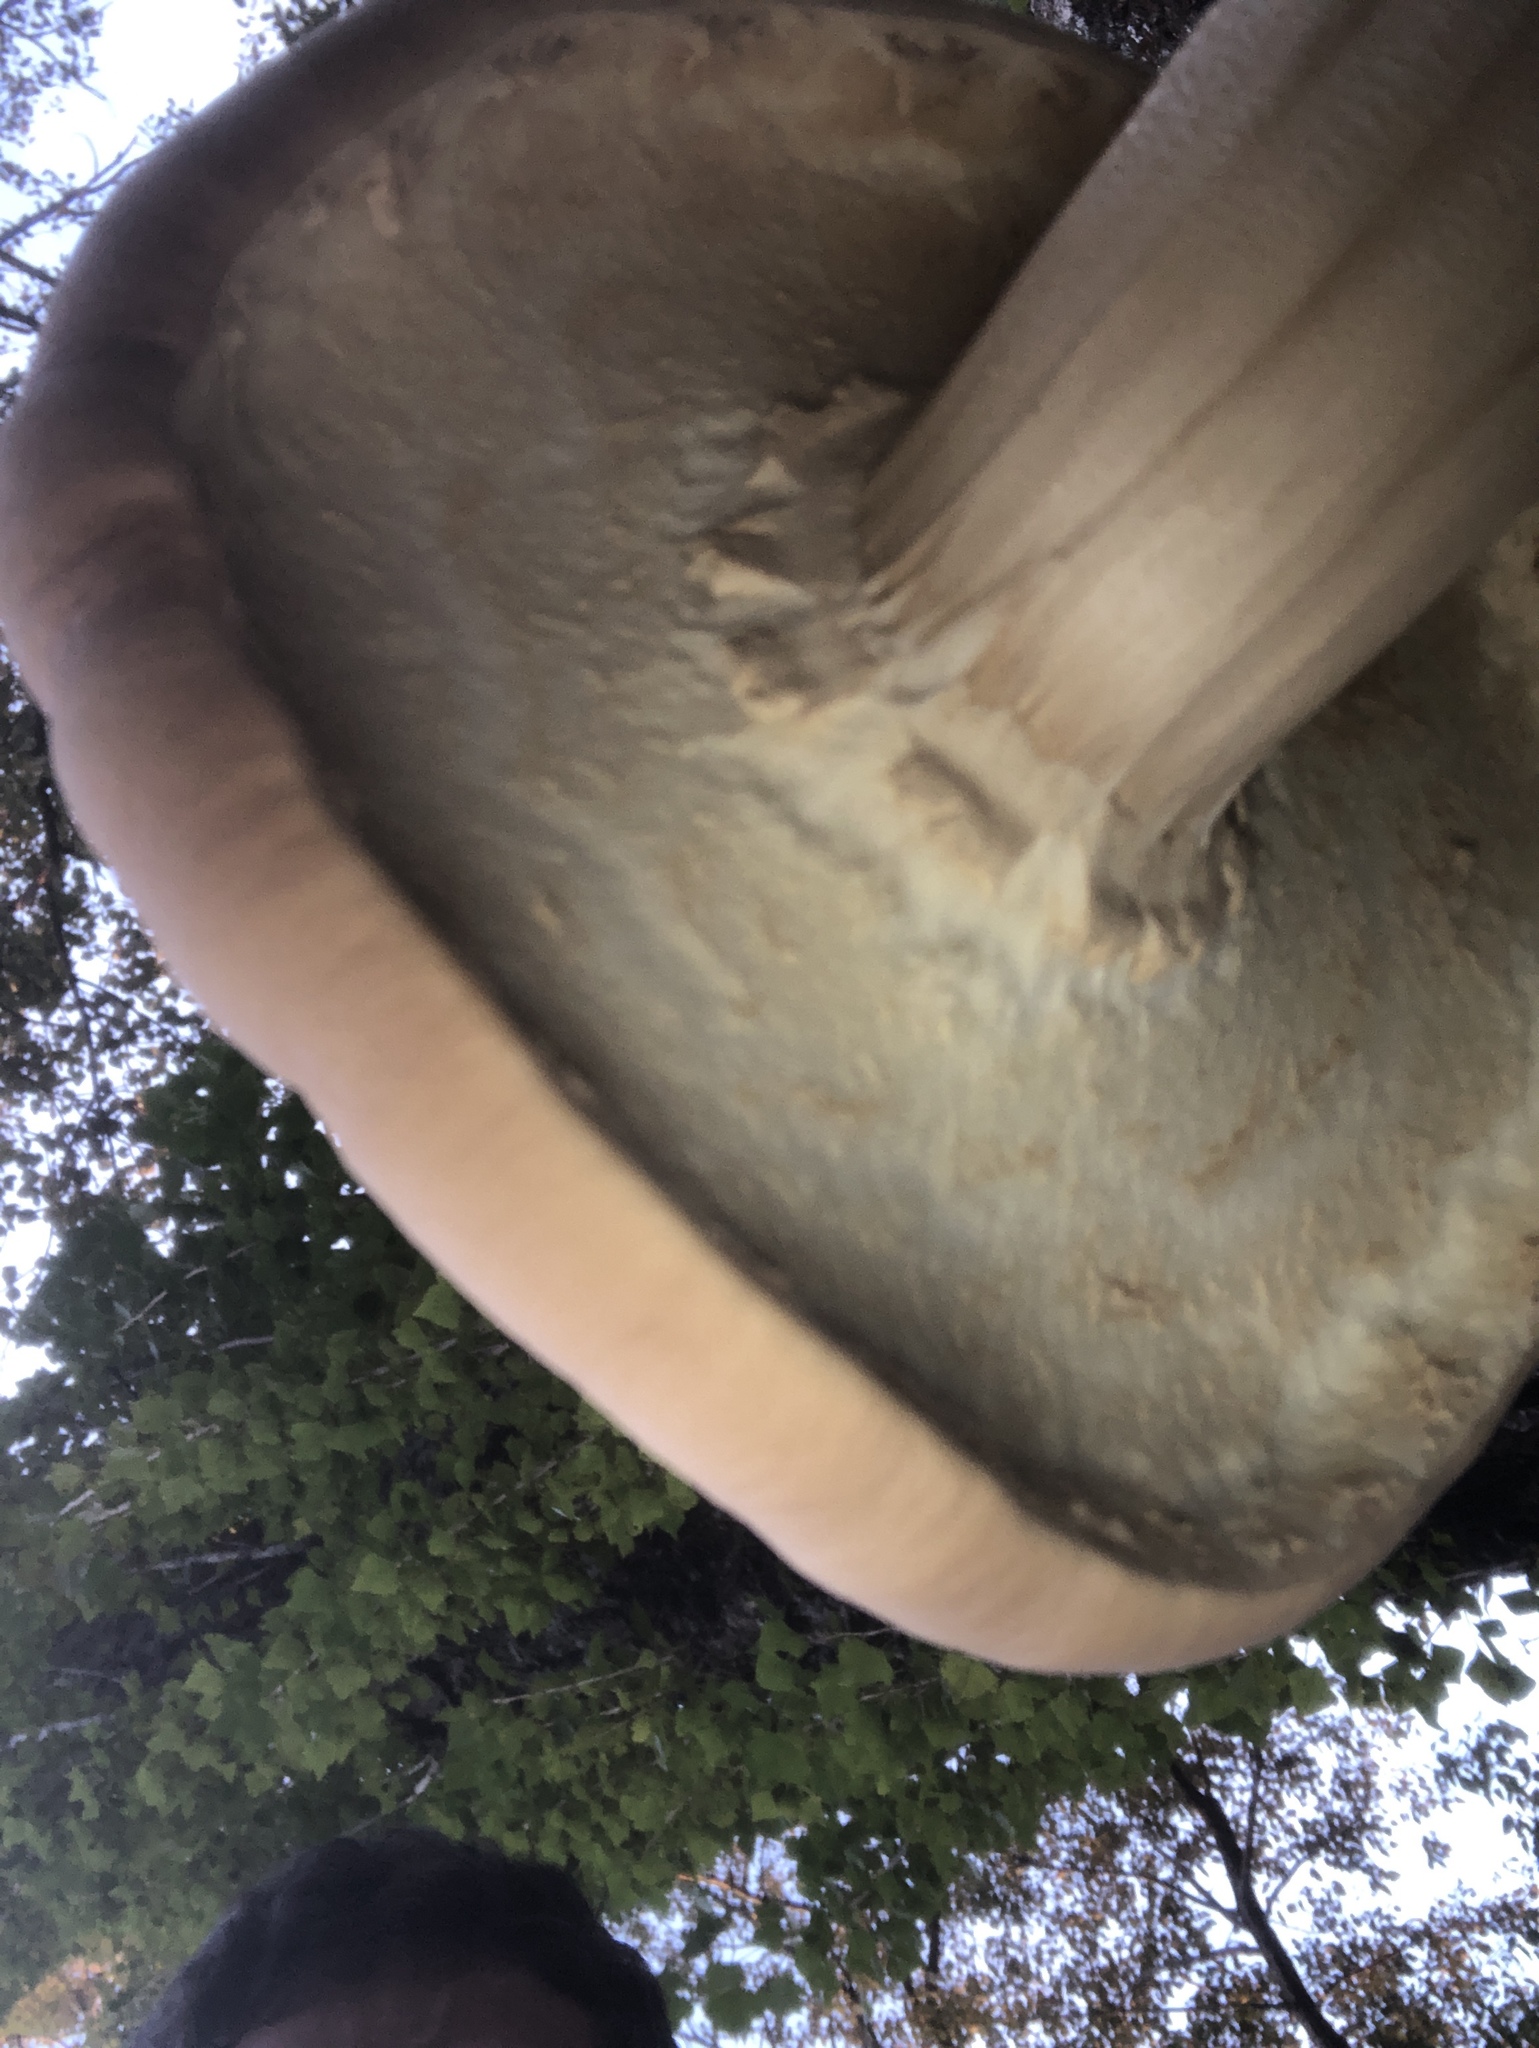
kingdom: Fungi
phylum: Basidiomycota
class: Agaricomycetes
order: Agaricales
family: Tubariaceae
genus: Cyclocybe
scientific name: Cyclocybe parasitica
